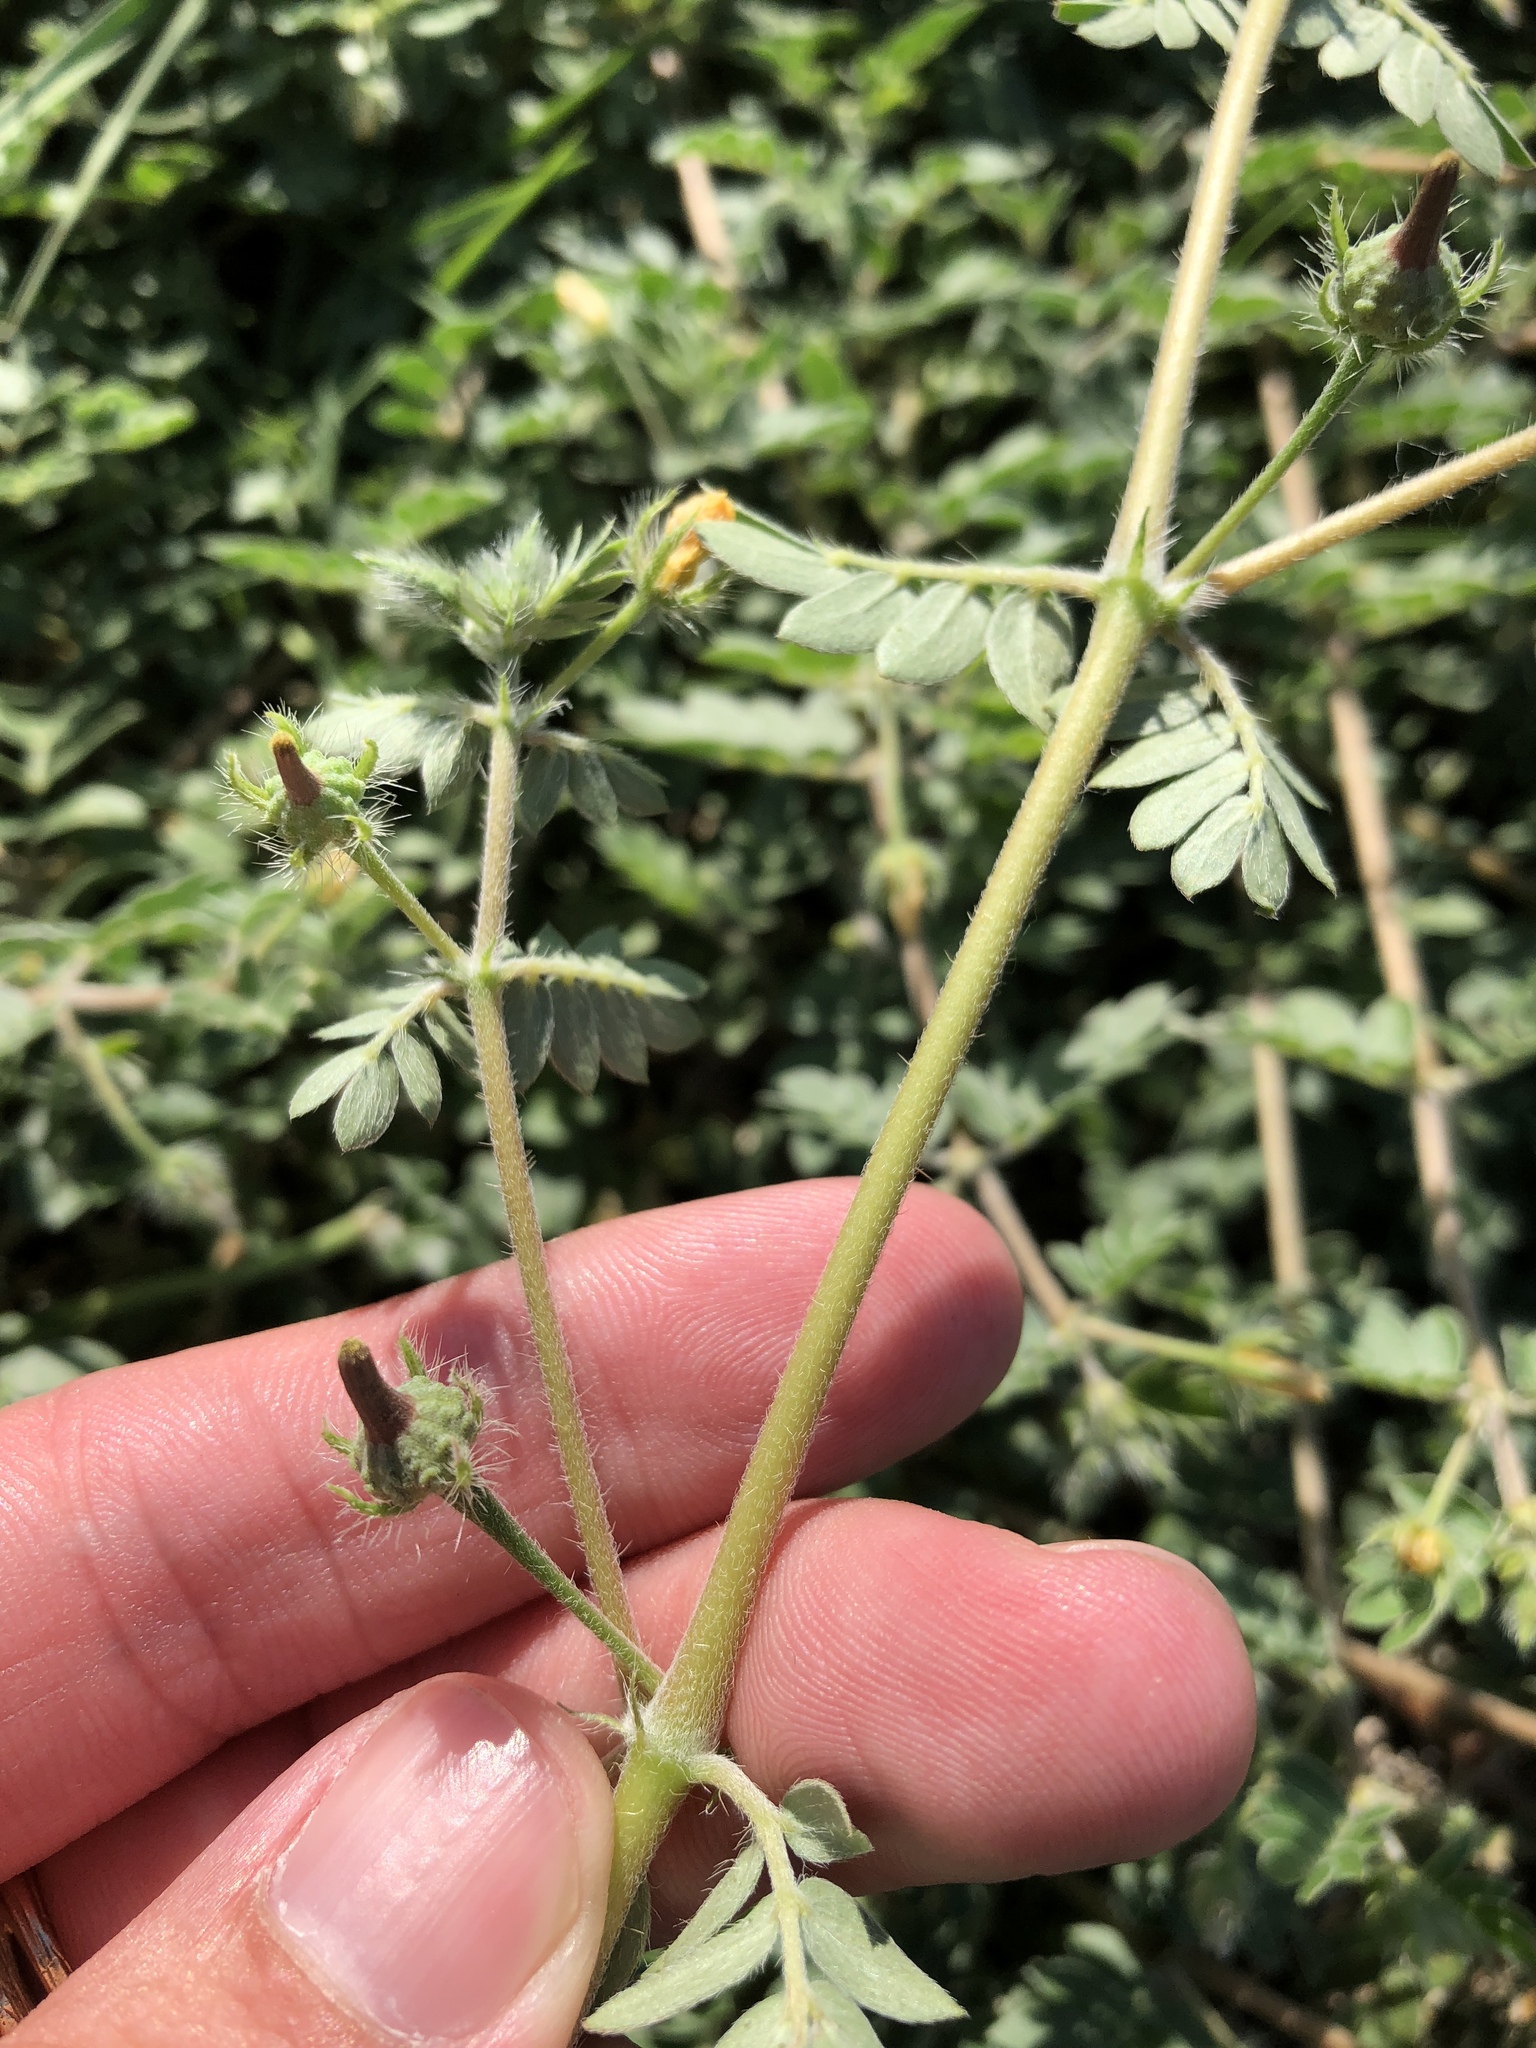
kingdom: Plantae
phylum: Tracheophyta
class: Magnoliopsida
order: Zygophyllales
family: Zygophyllaceae
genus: Kallstroemia
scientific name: Kallstroemia parviflora
